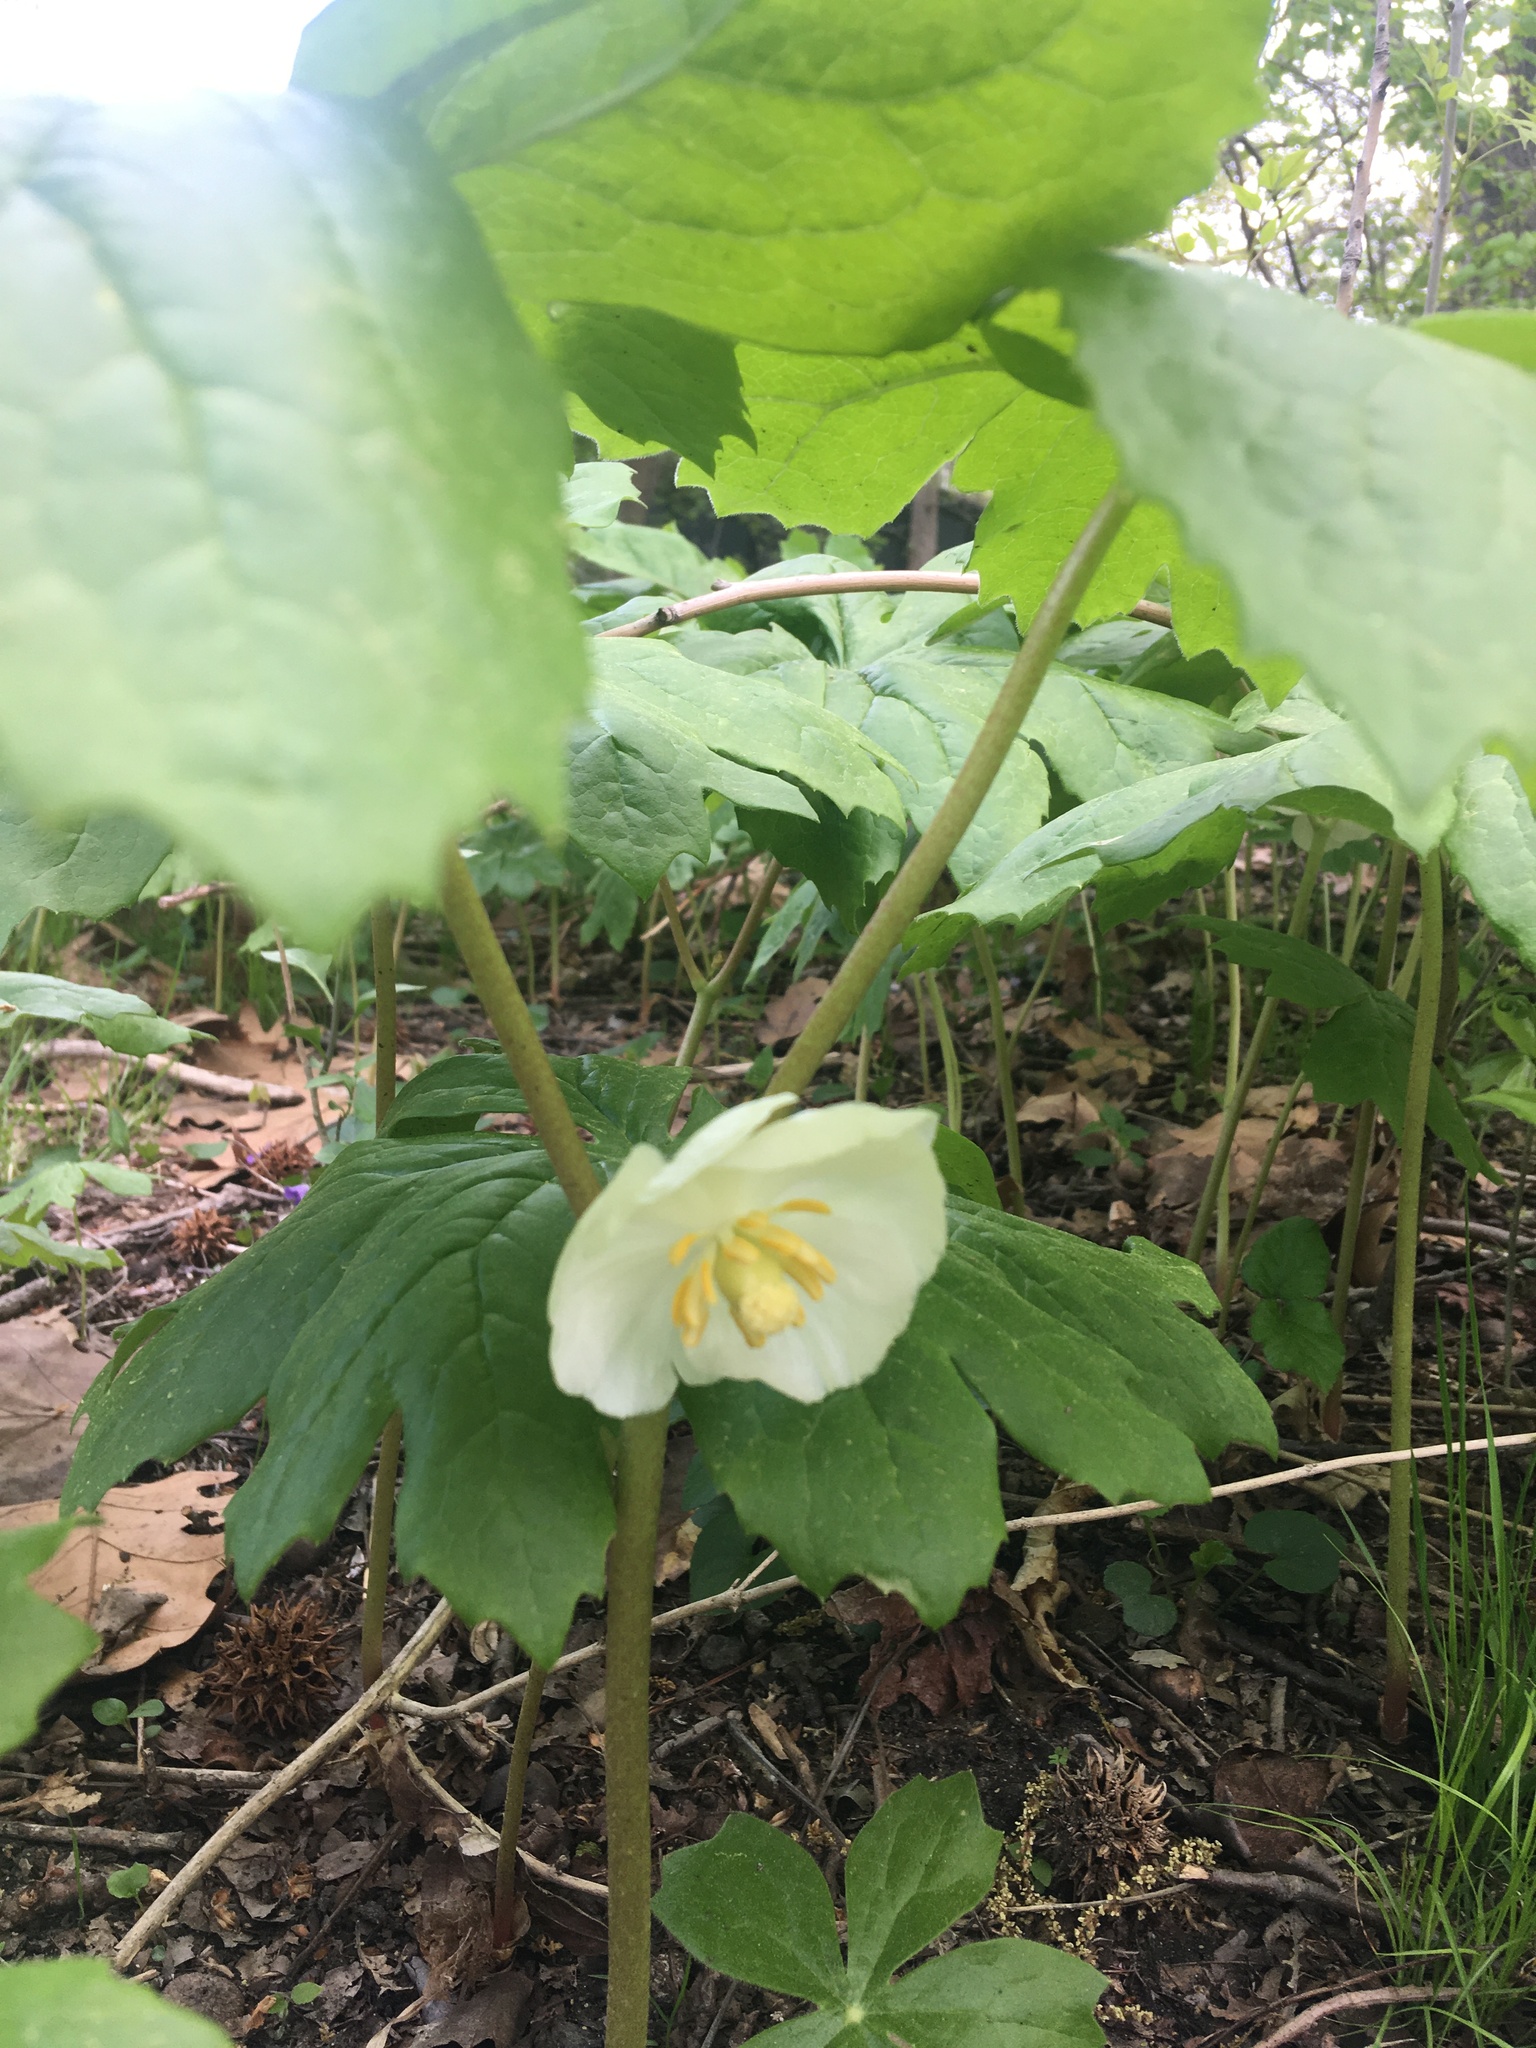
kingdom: Plantae
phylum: Tracheophyta
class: Magnoliopsida
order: Ranunculales
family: Berberidaceae
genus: Podophyllum
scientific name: Podophyllum peltatum
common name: Wild mandrake
